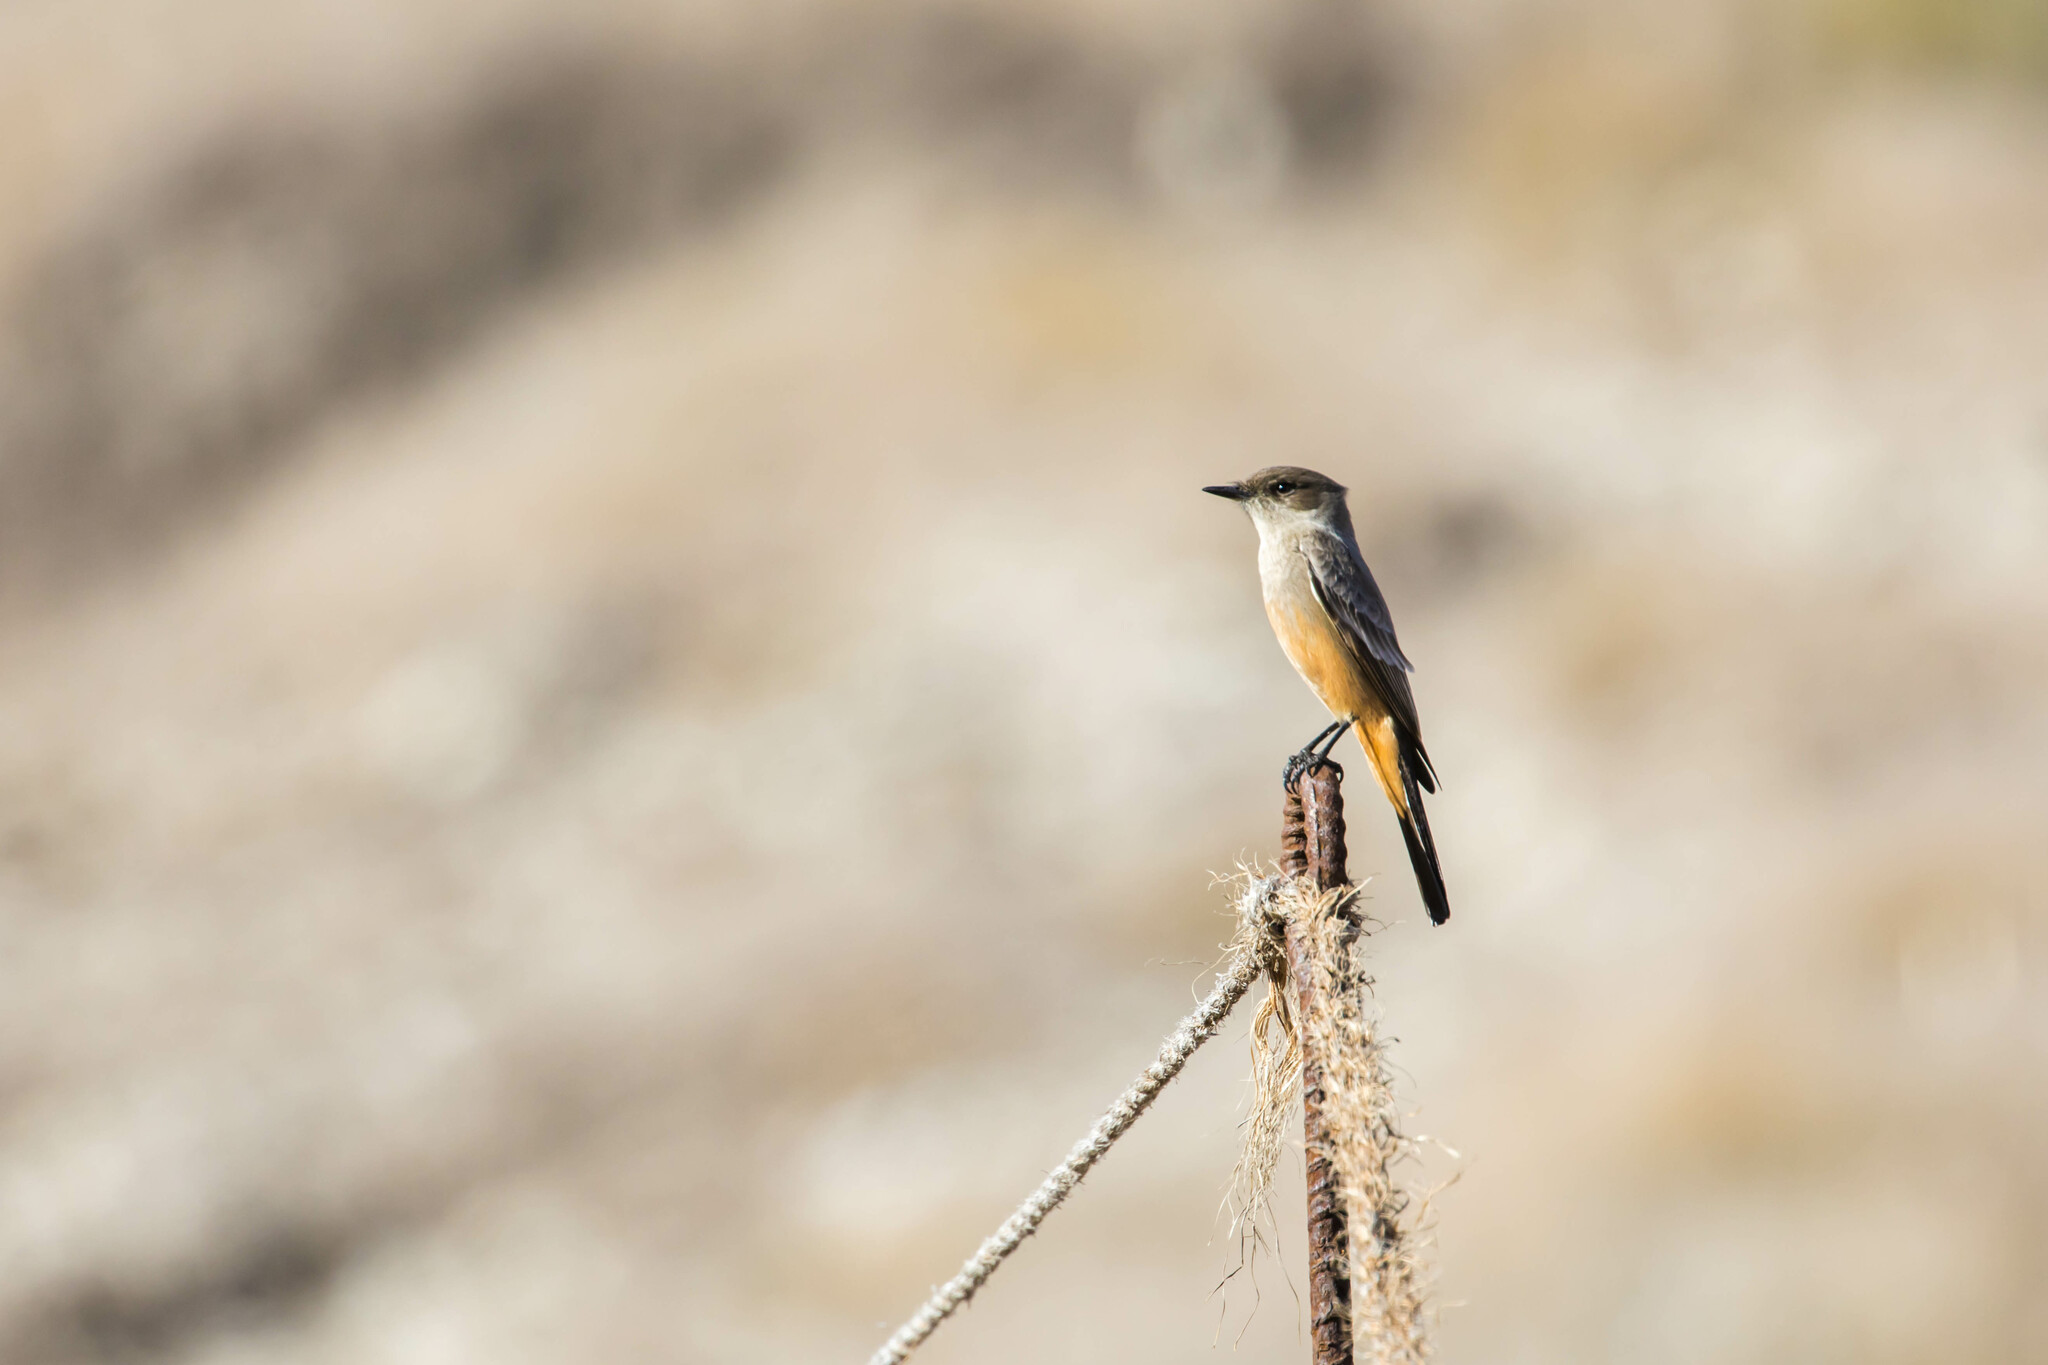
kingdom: Animalia
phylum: Chordata
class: Aves
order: Passeriformes
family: Tyrannidae
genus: Sayornis
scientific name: Sayornis saya
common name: Say's phoebe
